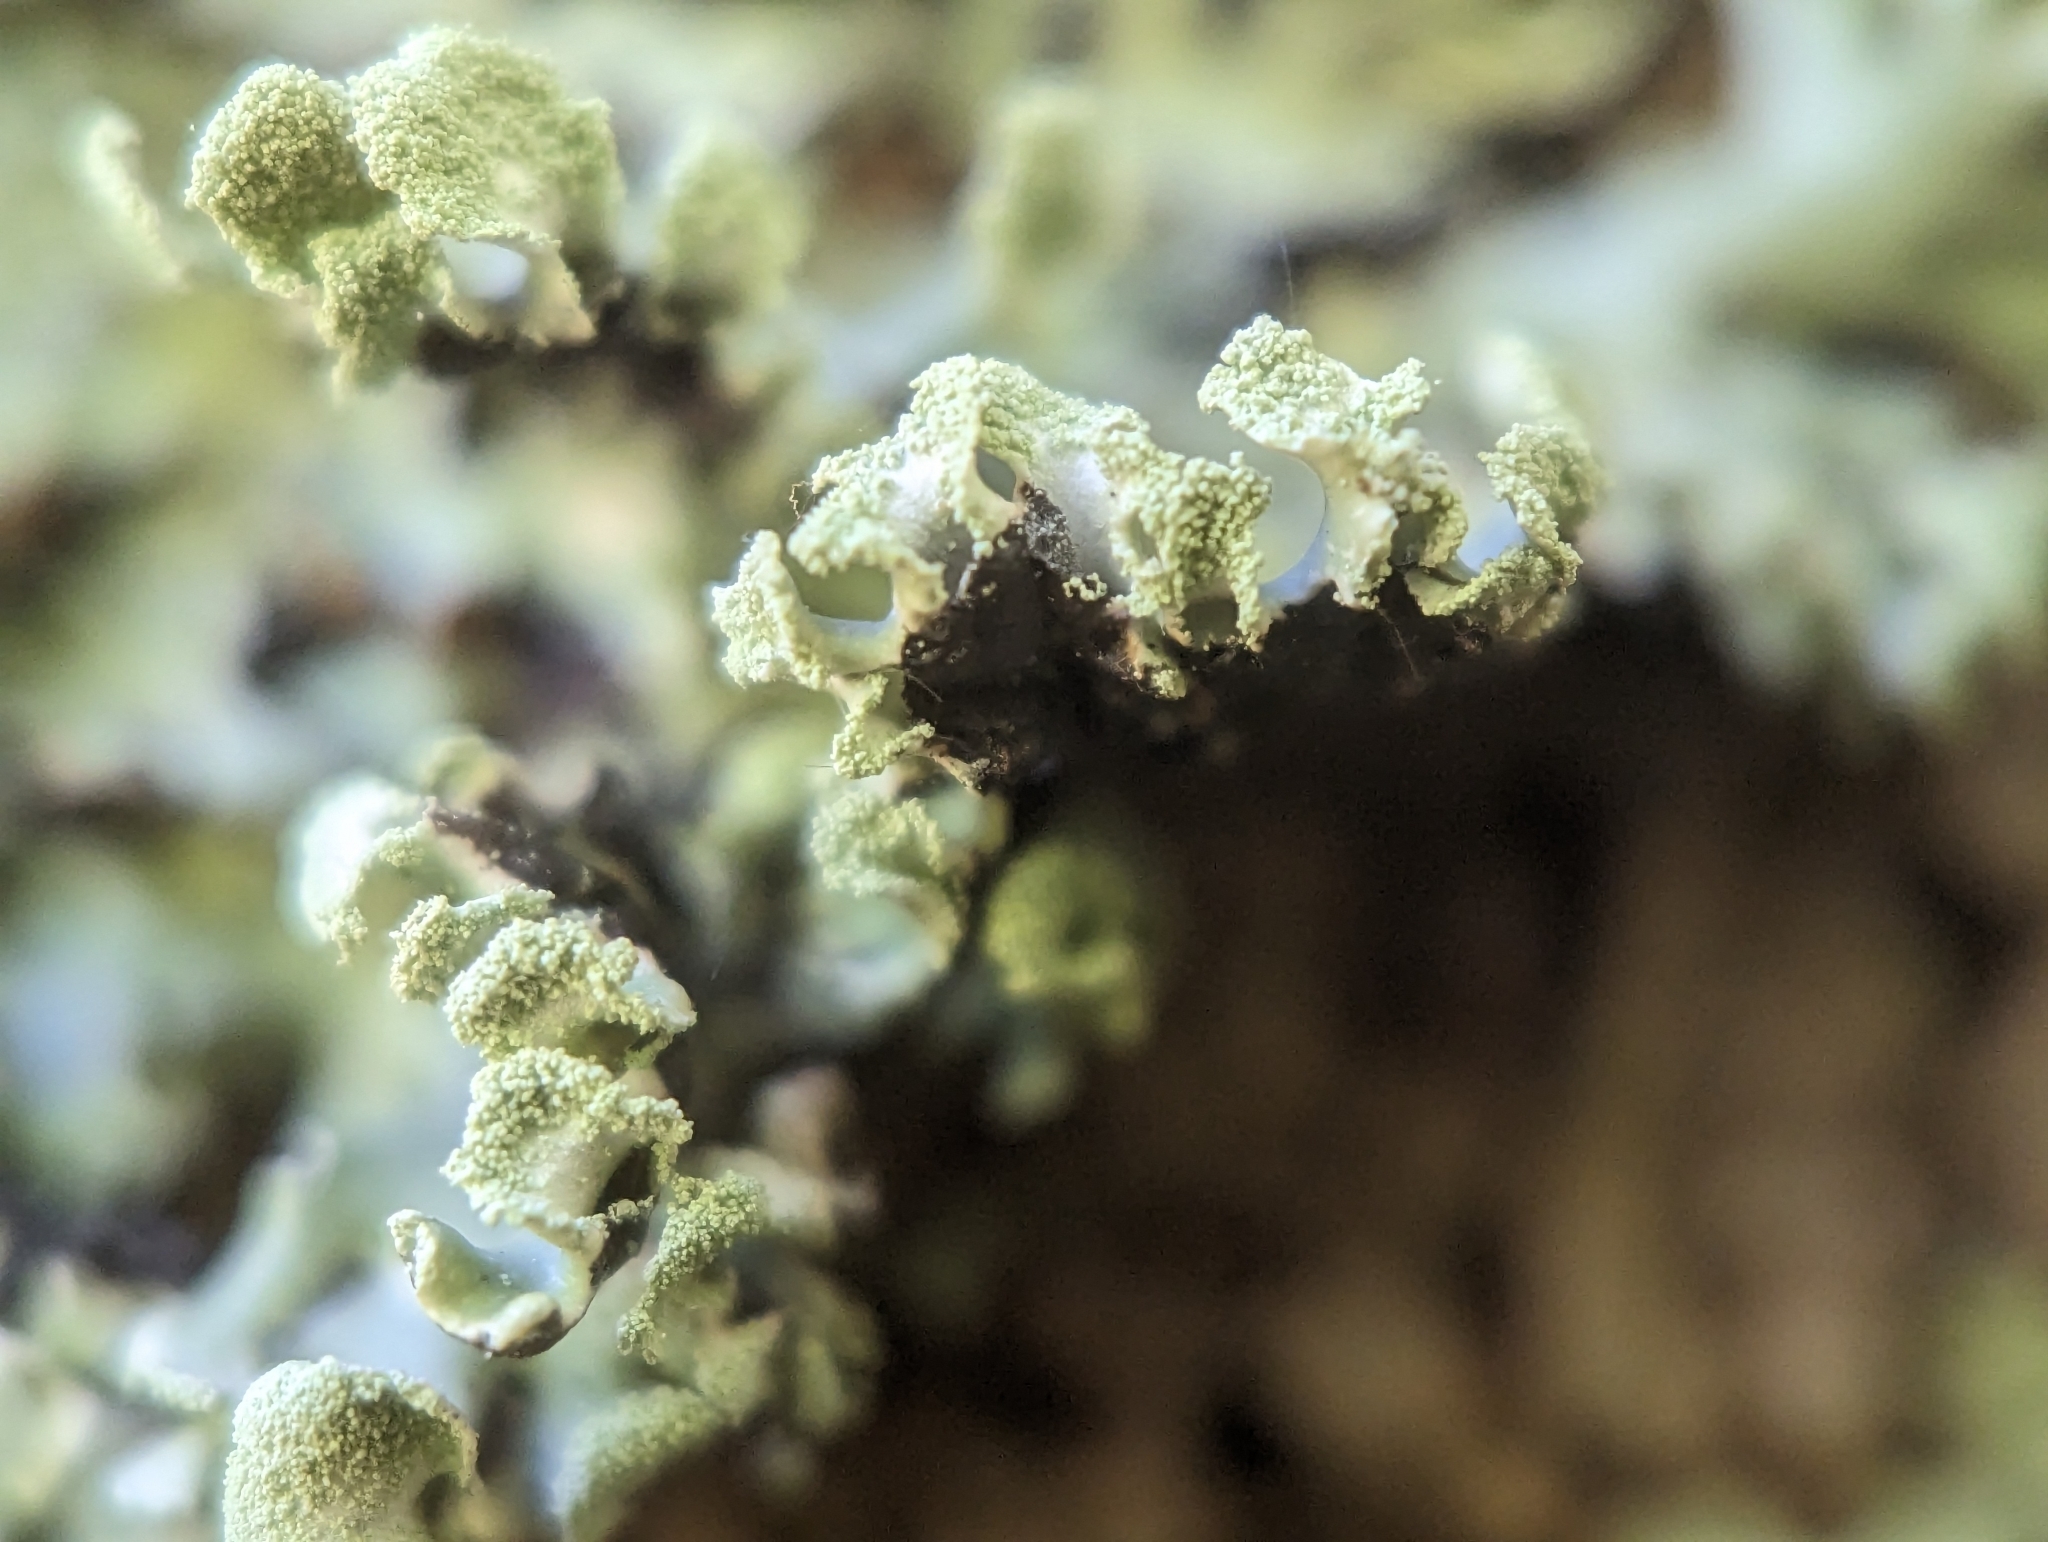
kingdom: Fungi
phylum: Ascomycota
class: Lecanoromycetes
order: Lecanorales
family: Parmeliaceae
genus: Hypogymnia
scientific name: Hypogymnia physodes
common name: Dark crottle
